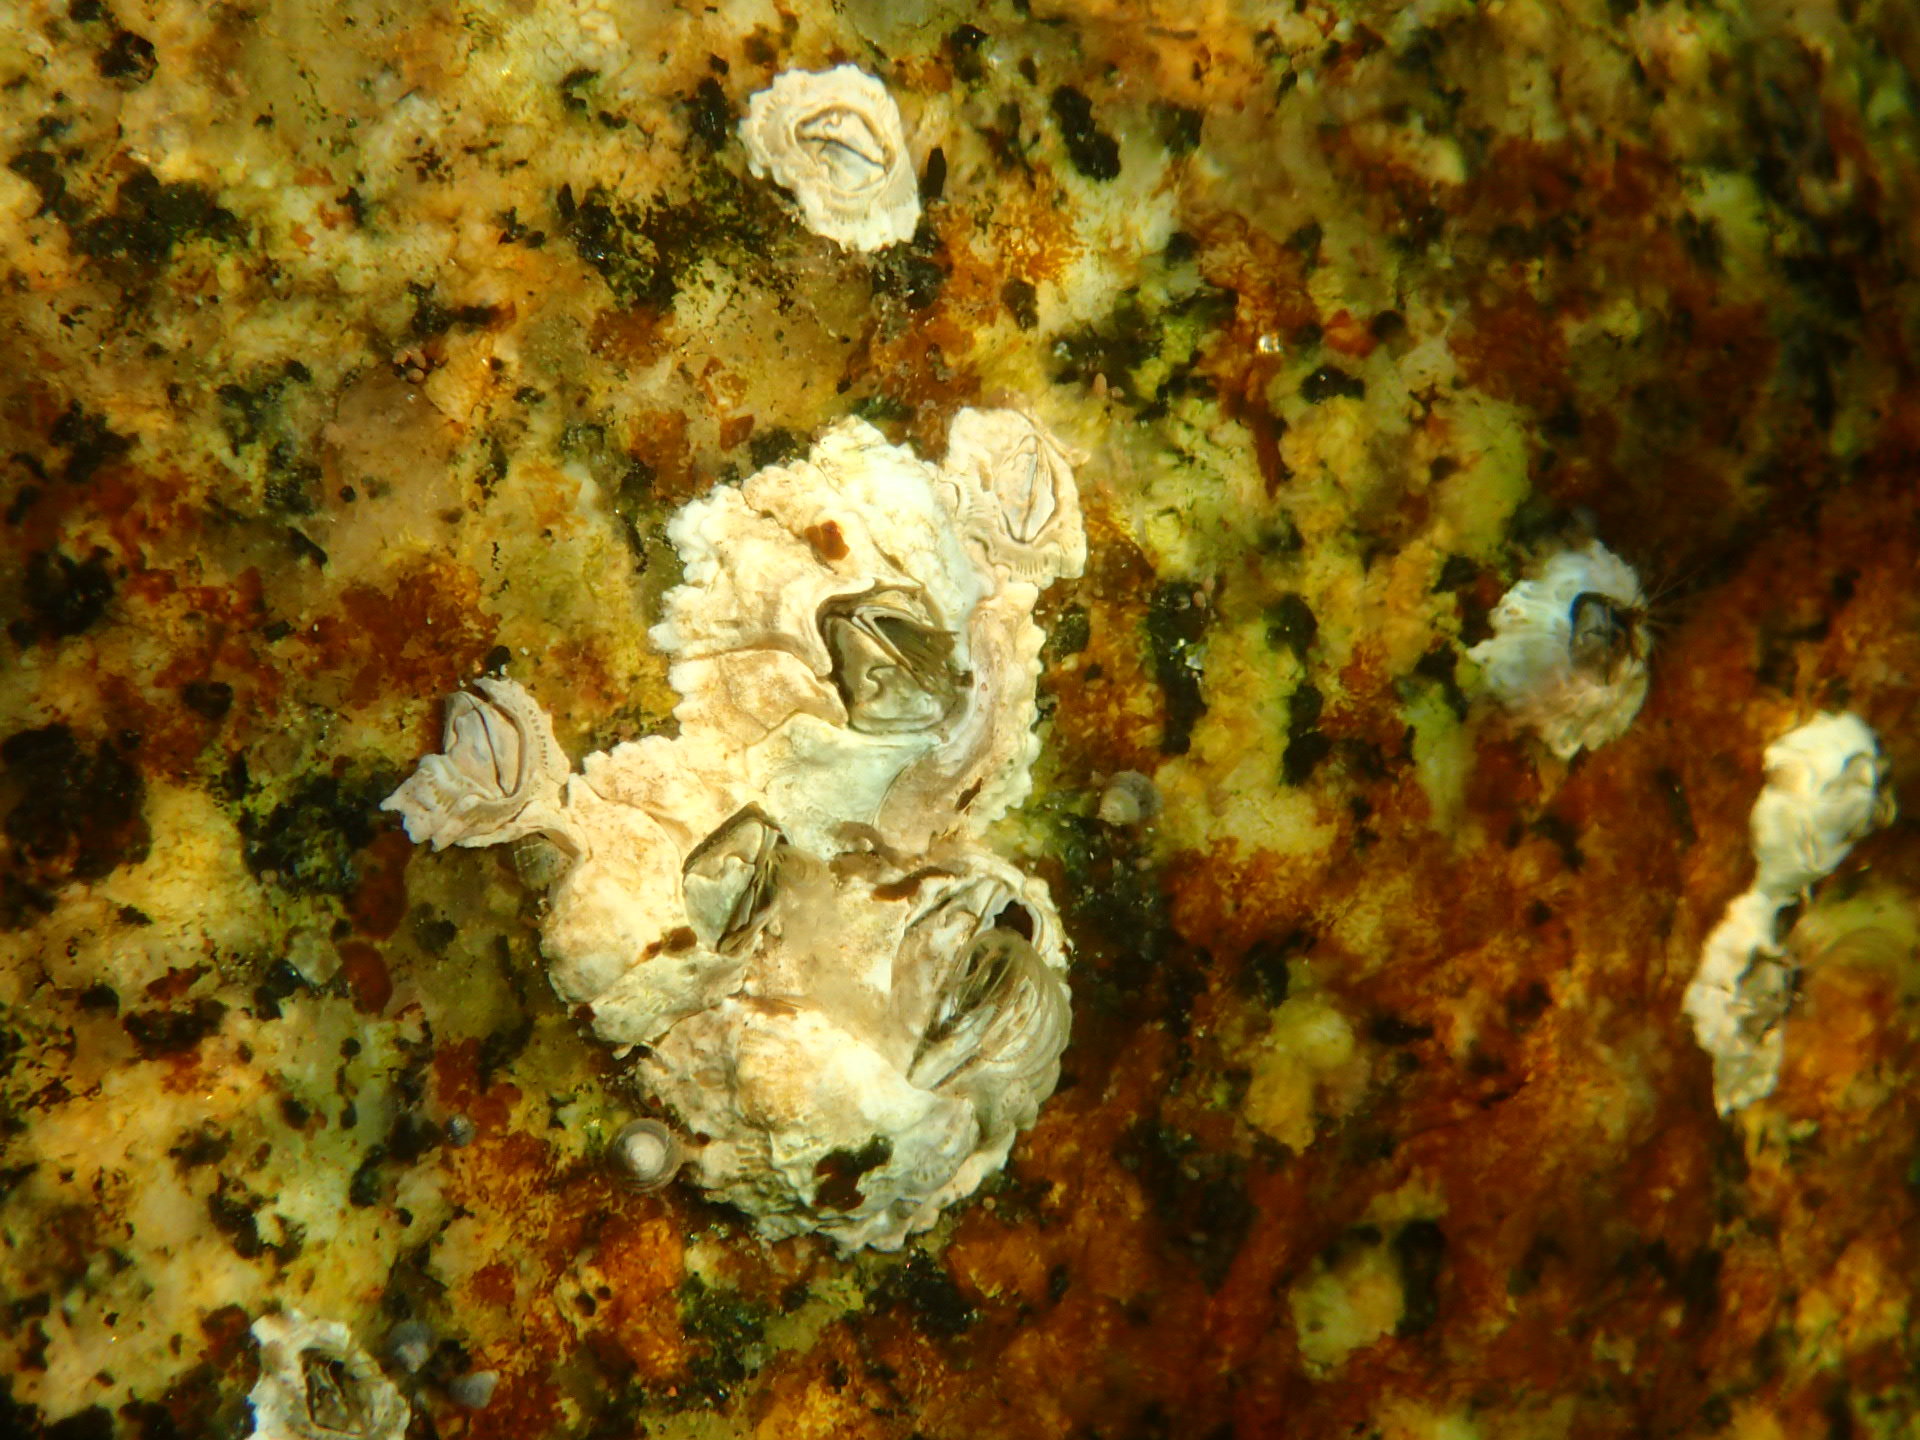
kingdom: Animalia
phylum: Arthropoda
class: Maxillopoda
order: Sessilia
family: Archaeobalanidae
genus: Semibalanus
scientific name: Semibalanus balanoides
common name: Acorn barnacle
